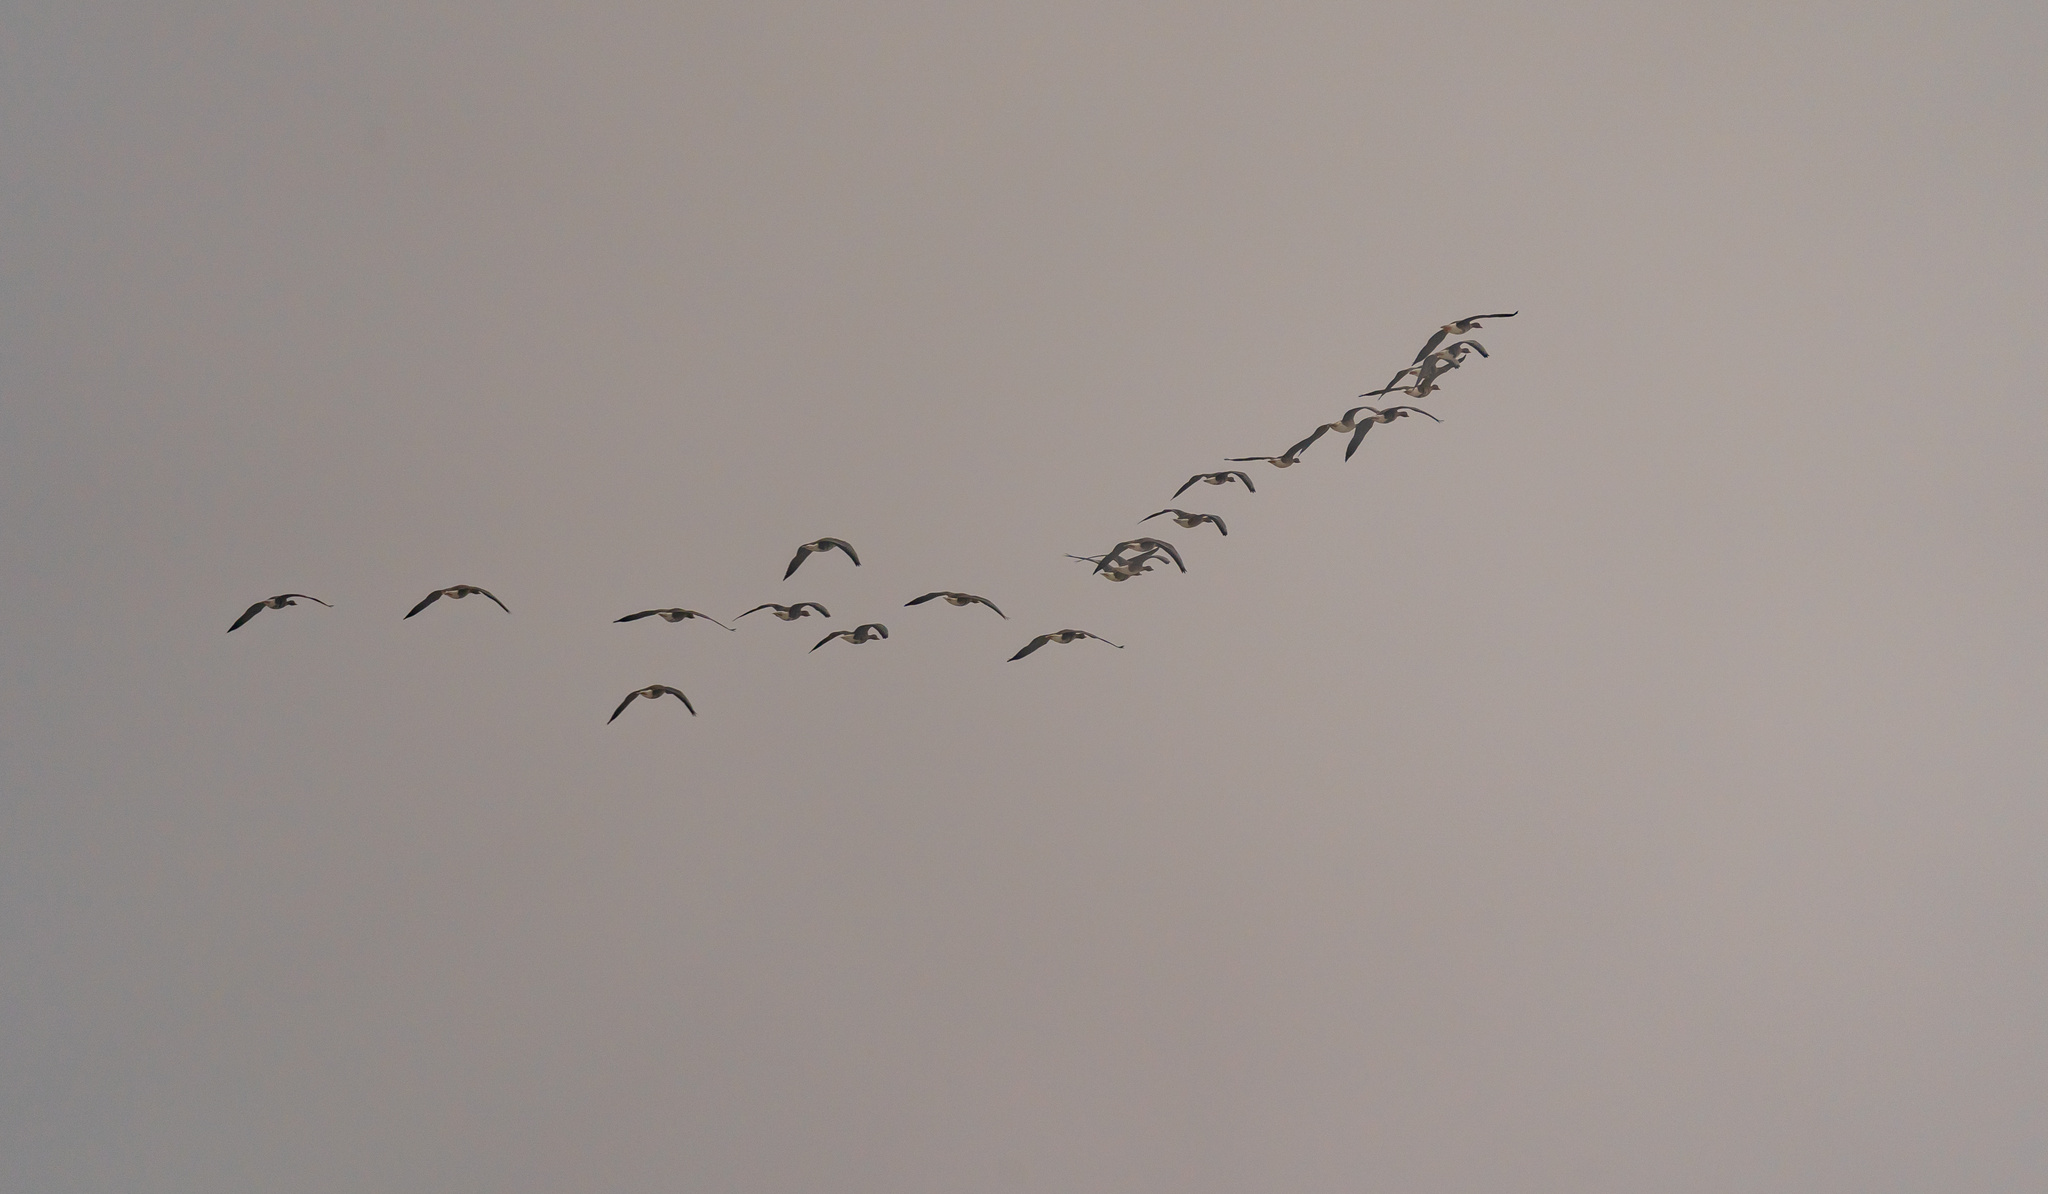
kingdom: Animalia
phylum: Chordata
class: Aves
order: Anseriformes
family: Anatidae
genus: Anser
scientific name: Anser anser
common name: Greylag goose
